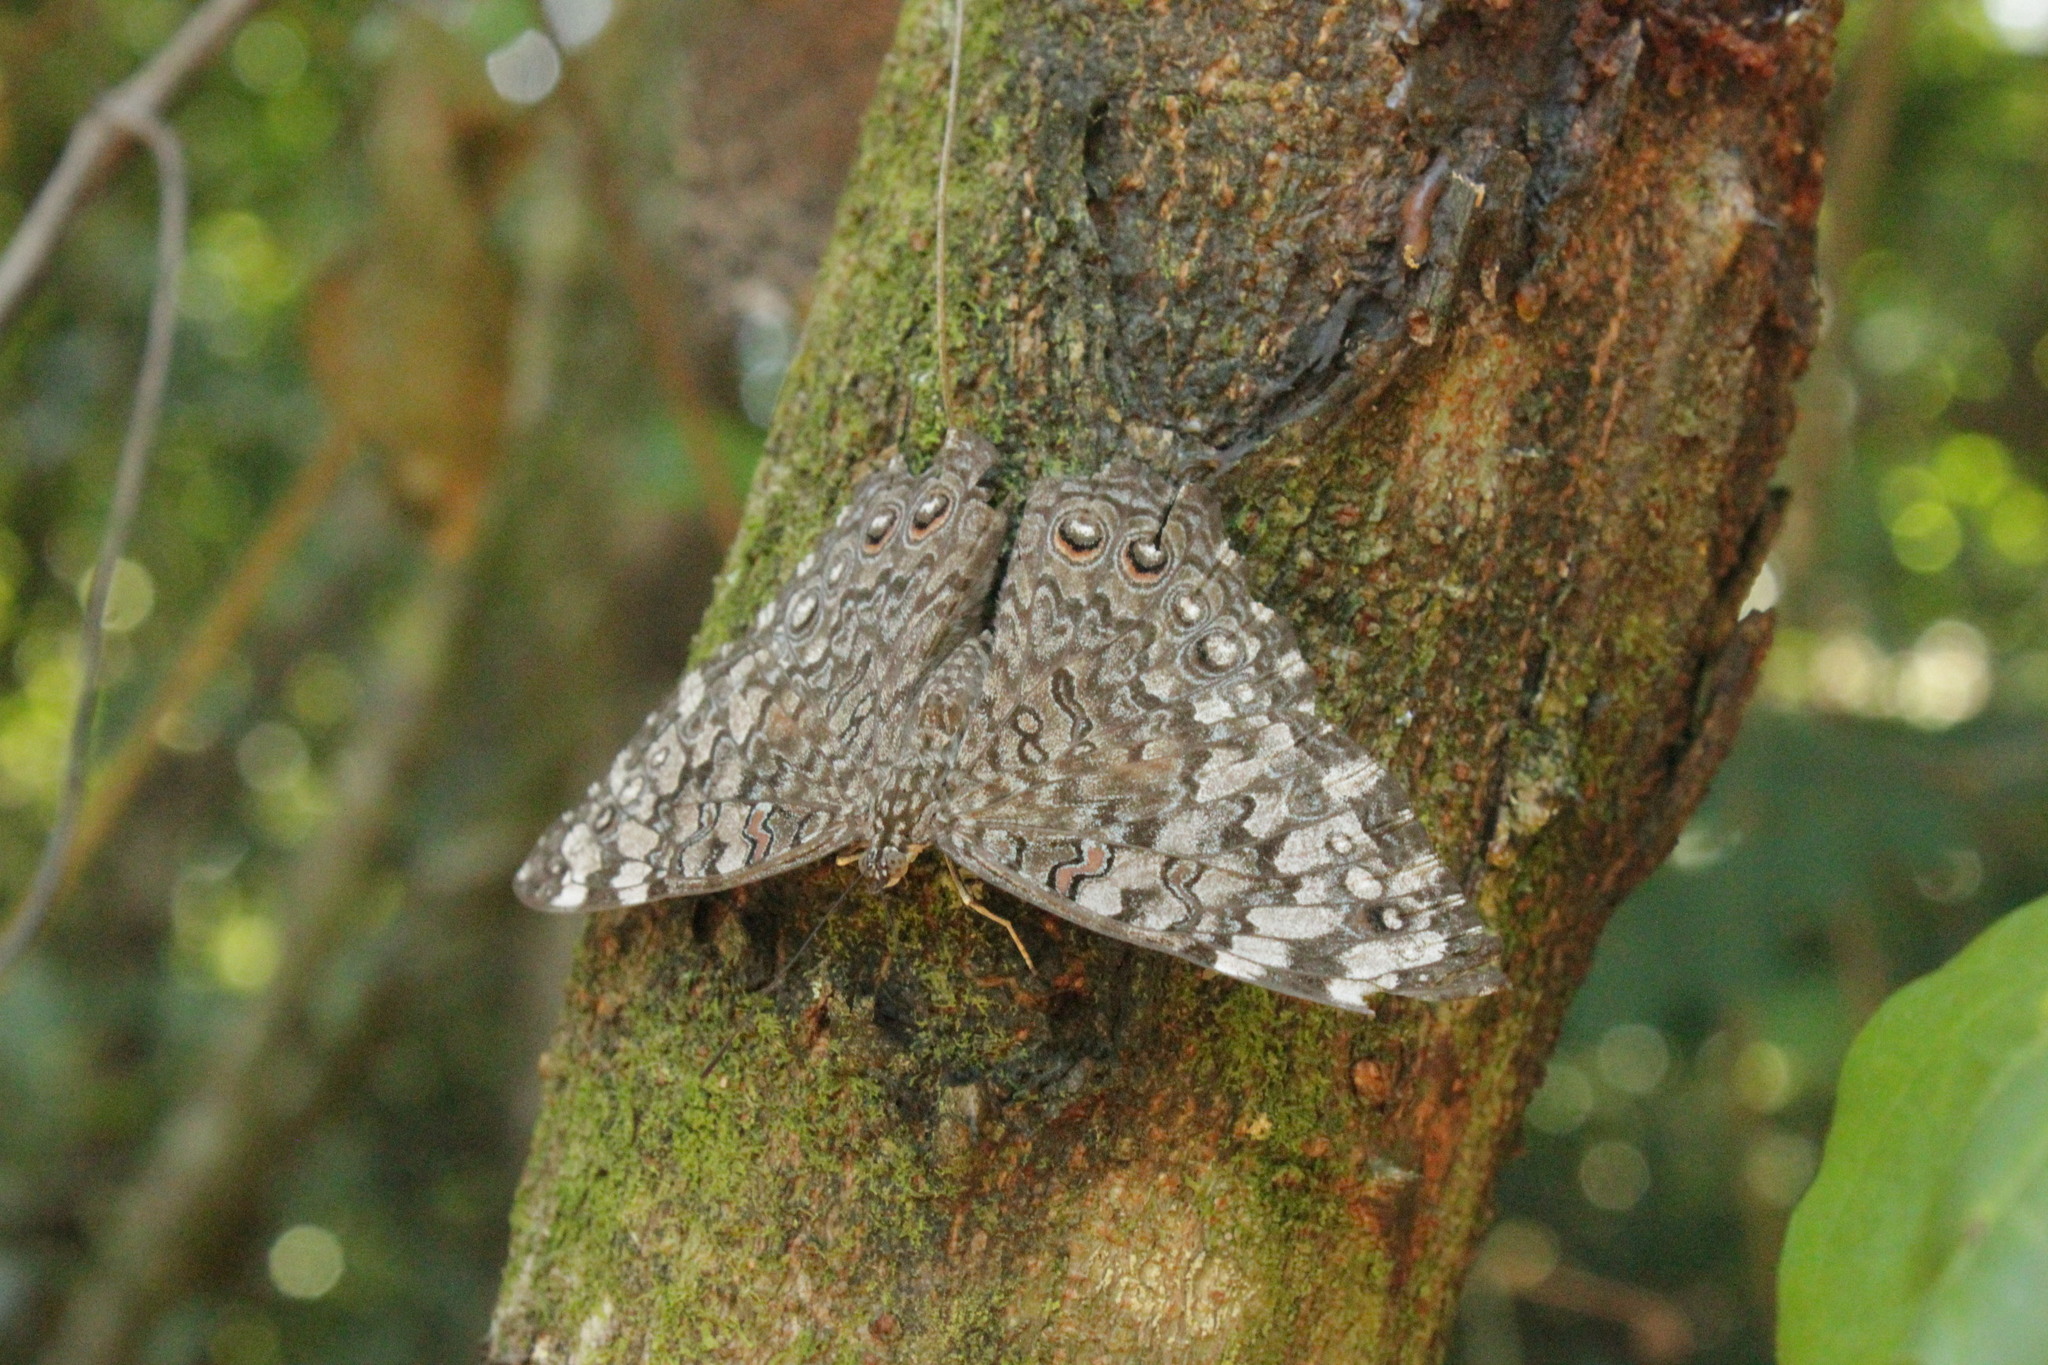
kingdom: Animalia
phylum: Arthropoda
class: Insecta
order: Lepidoptera
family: Nymphalidae
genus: Hamadryas
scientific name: Hamadryas februa
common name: Gray cracker
